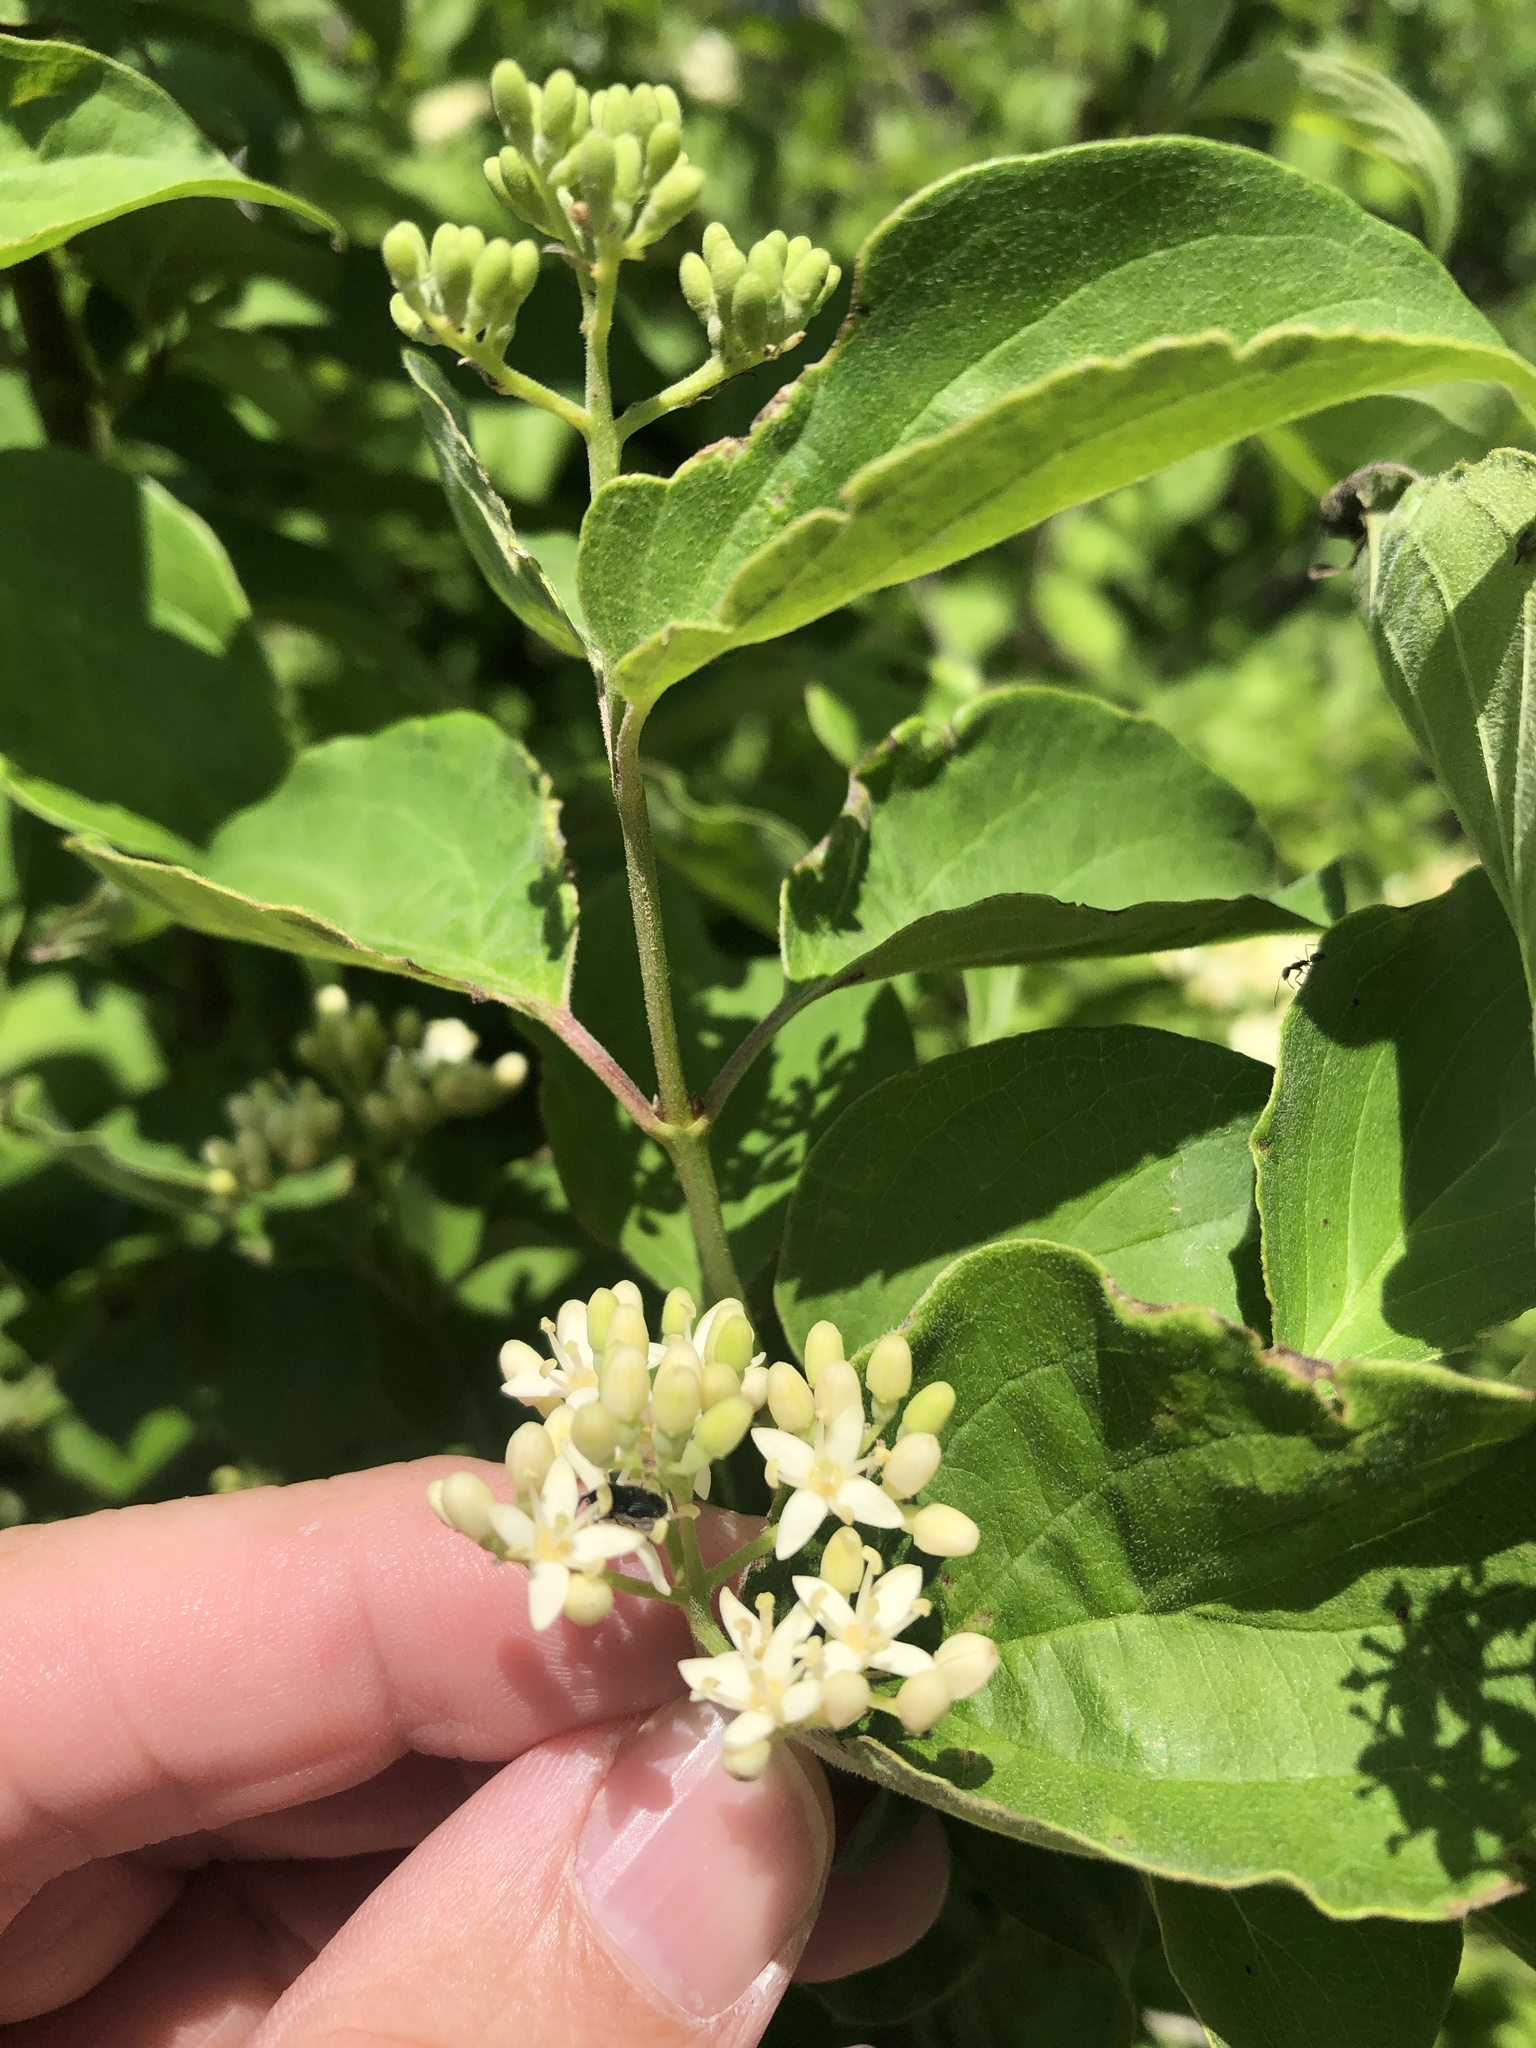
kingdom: Plantae
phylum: Tracheophyta
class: Magnoliopsida
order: Cornales
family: Cornaceae
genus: Cornus
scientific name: Cornus drummondii
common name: Rough-leaf dogwood
